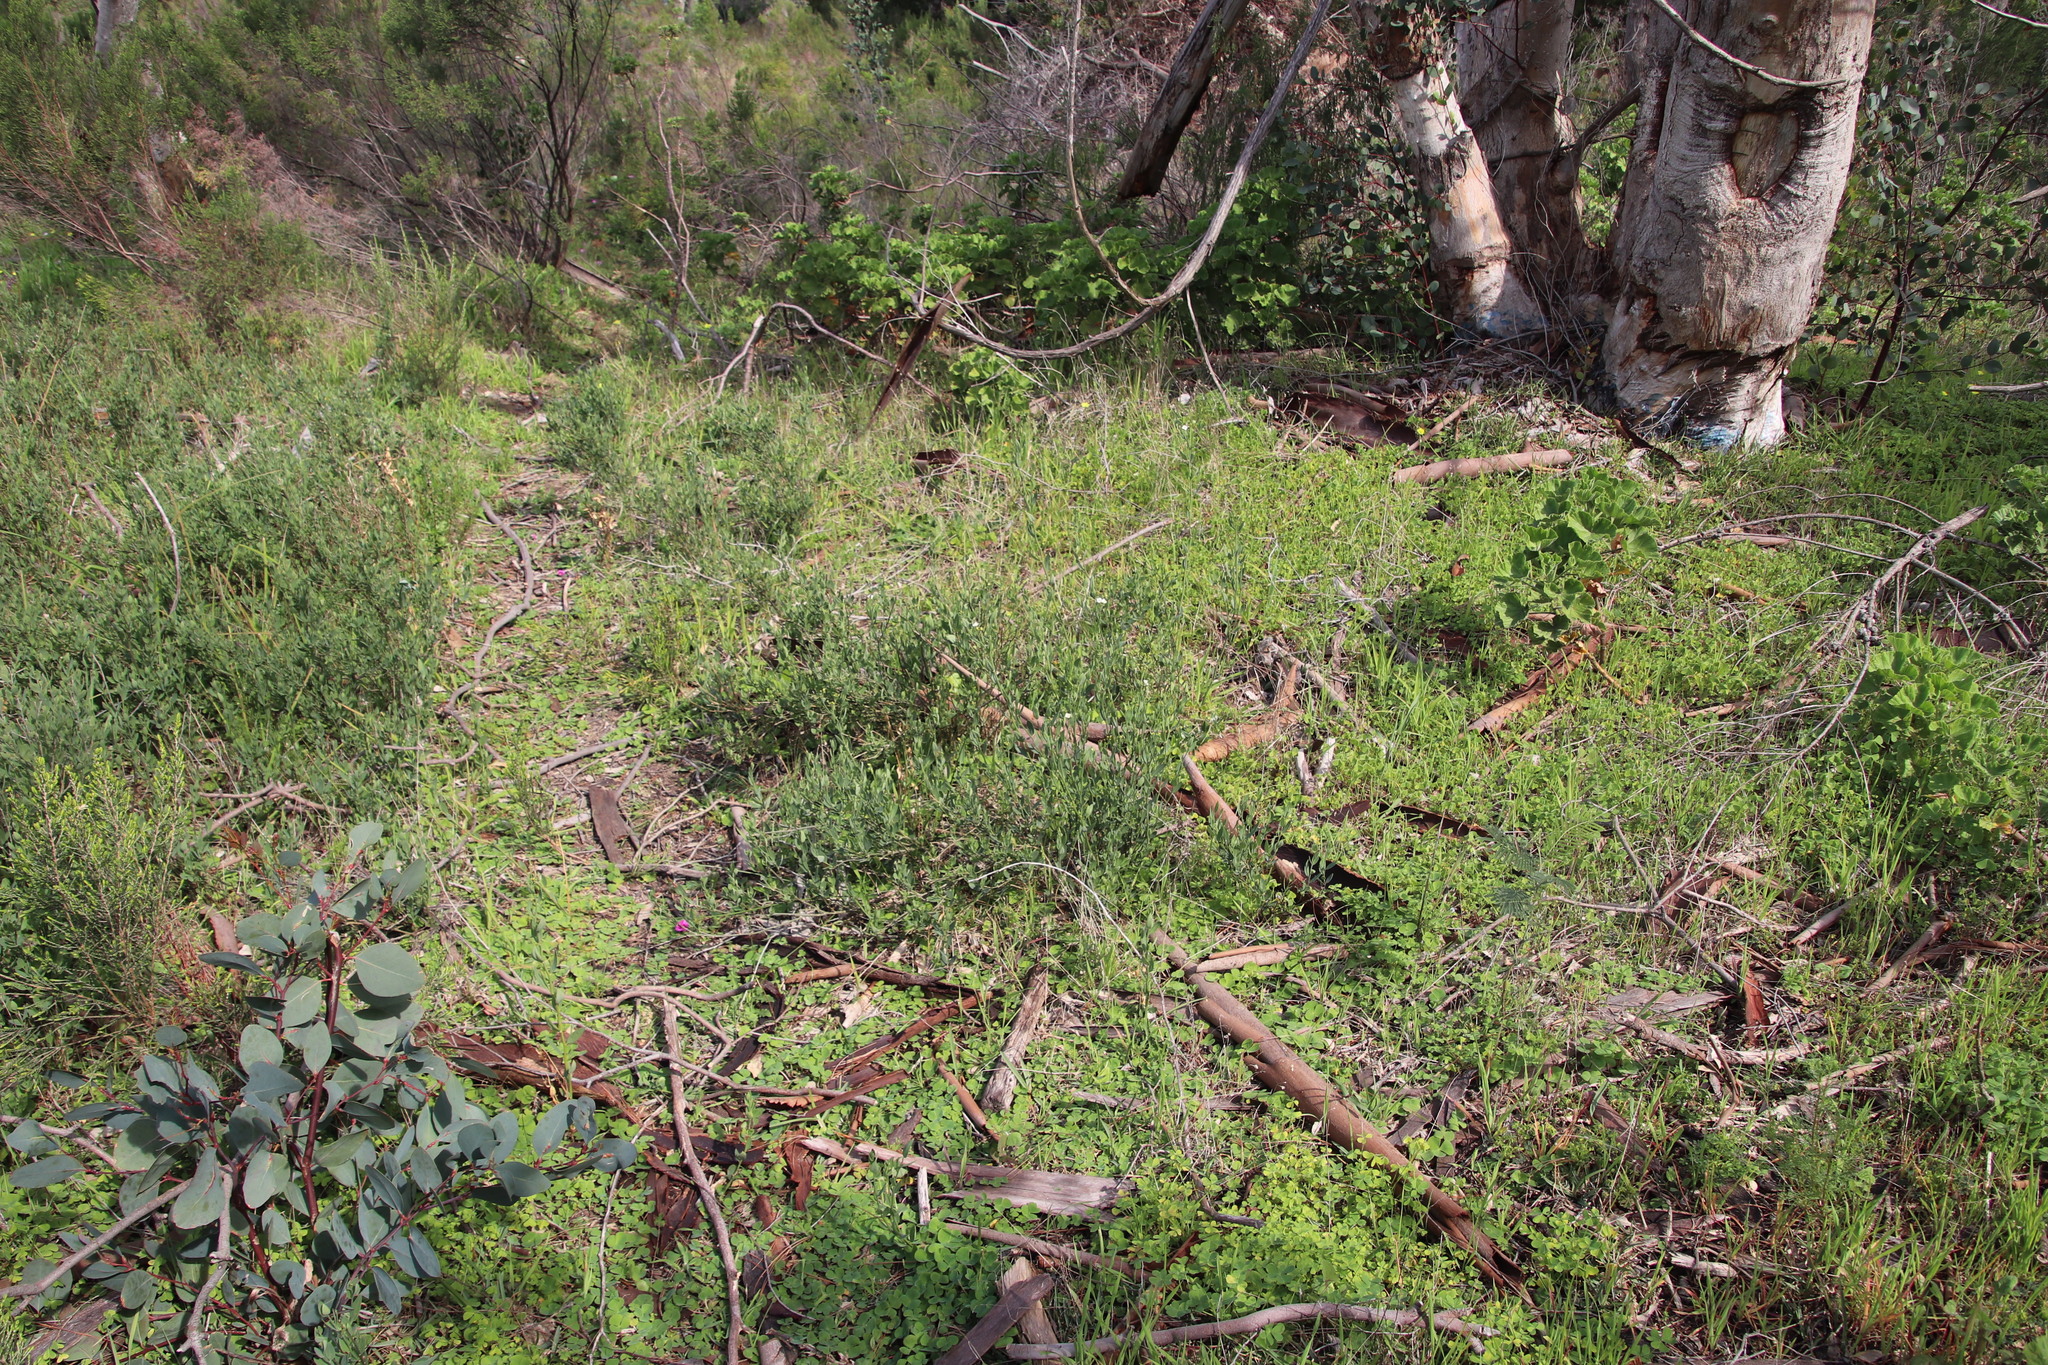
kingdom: Plantae
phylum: Tracheophyta
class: Magnoliopsida
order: Solanales
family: Montiniaceae
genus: Montinia
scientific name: Montinia caryophyllacea
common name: Wild clove-bush
